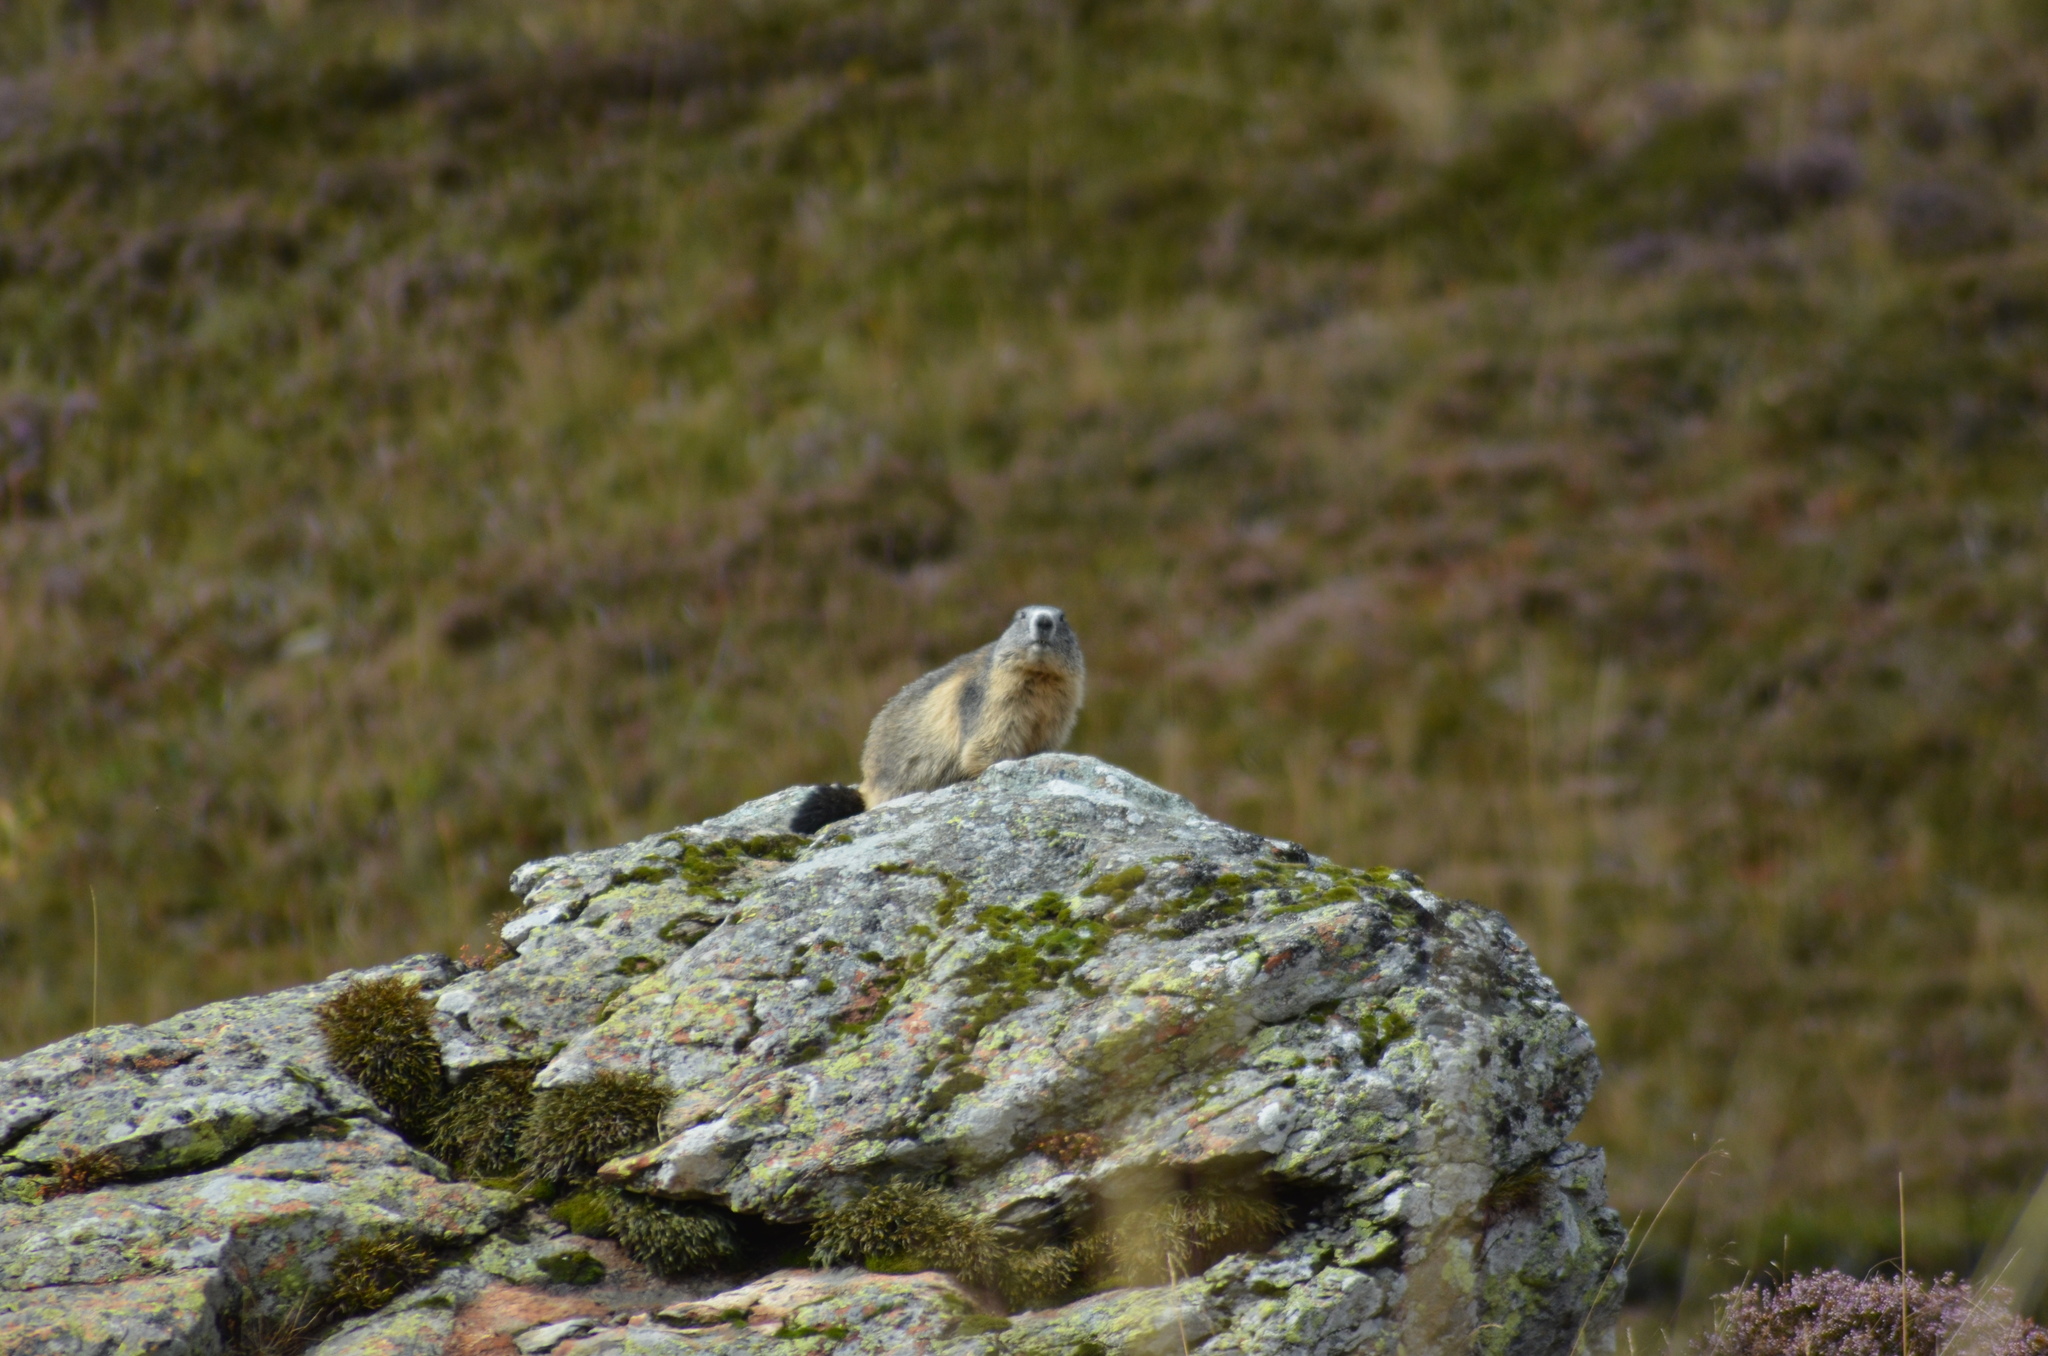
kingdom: Animalia
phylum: Chordata
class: Mammalia
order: Rodentia
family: Sciuridae
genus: Marmota
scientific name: Marmota marmota
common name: Alpine marmot
